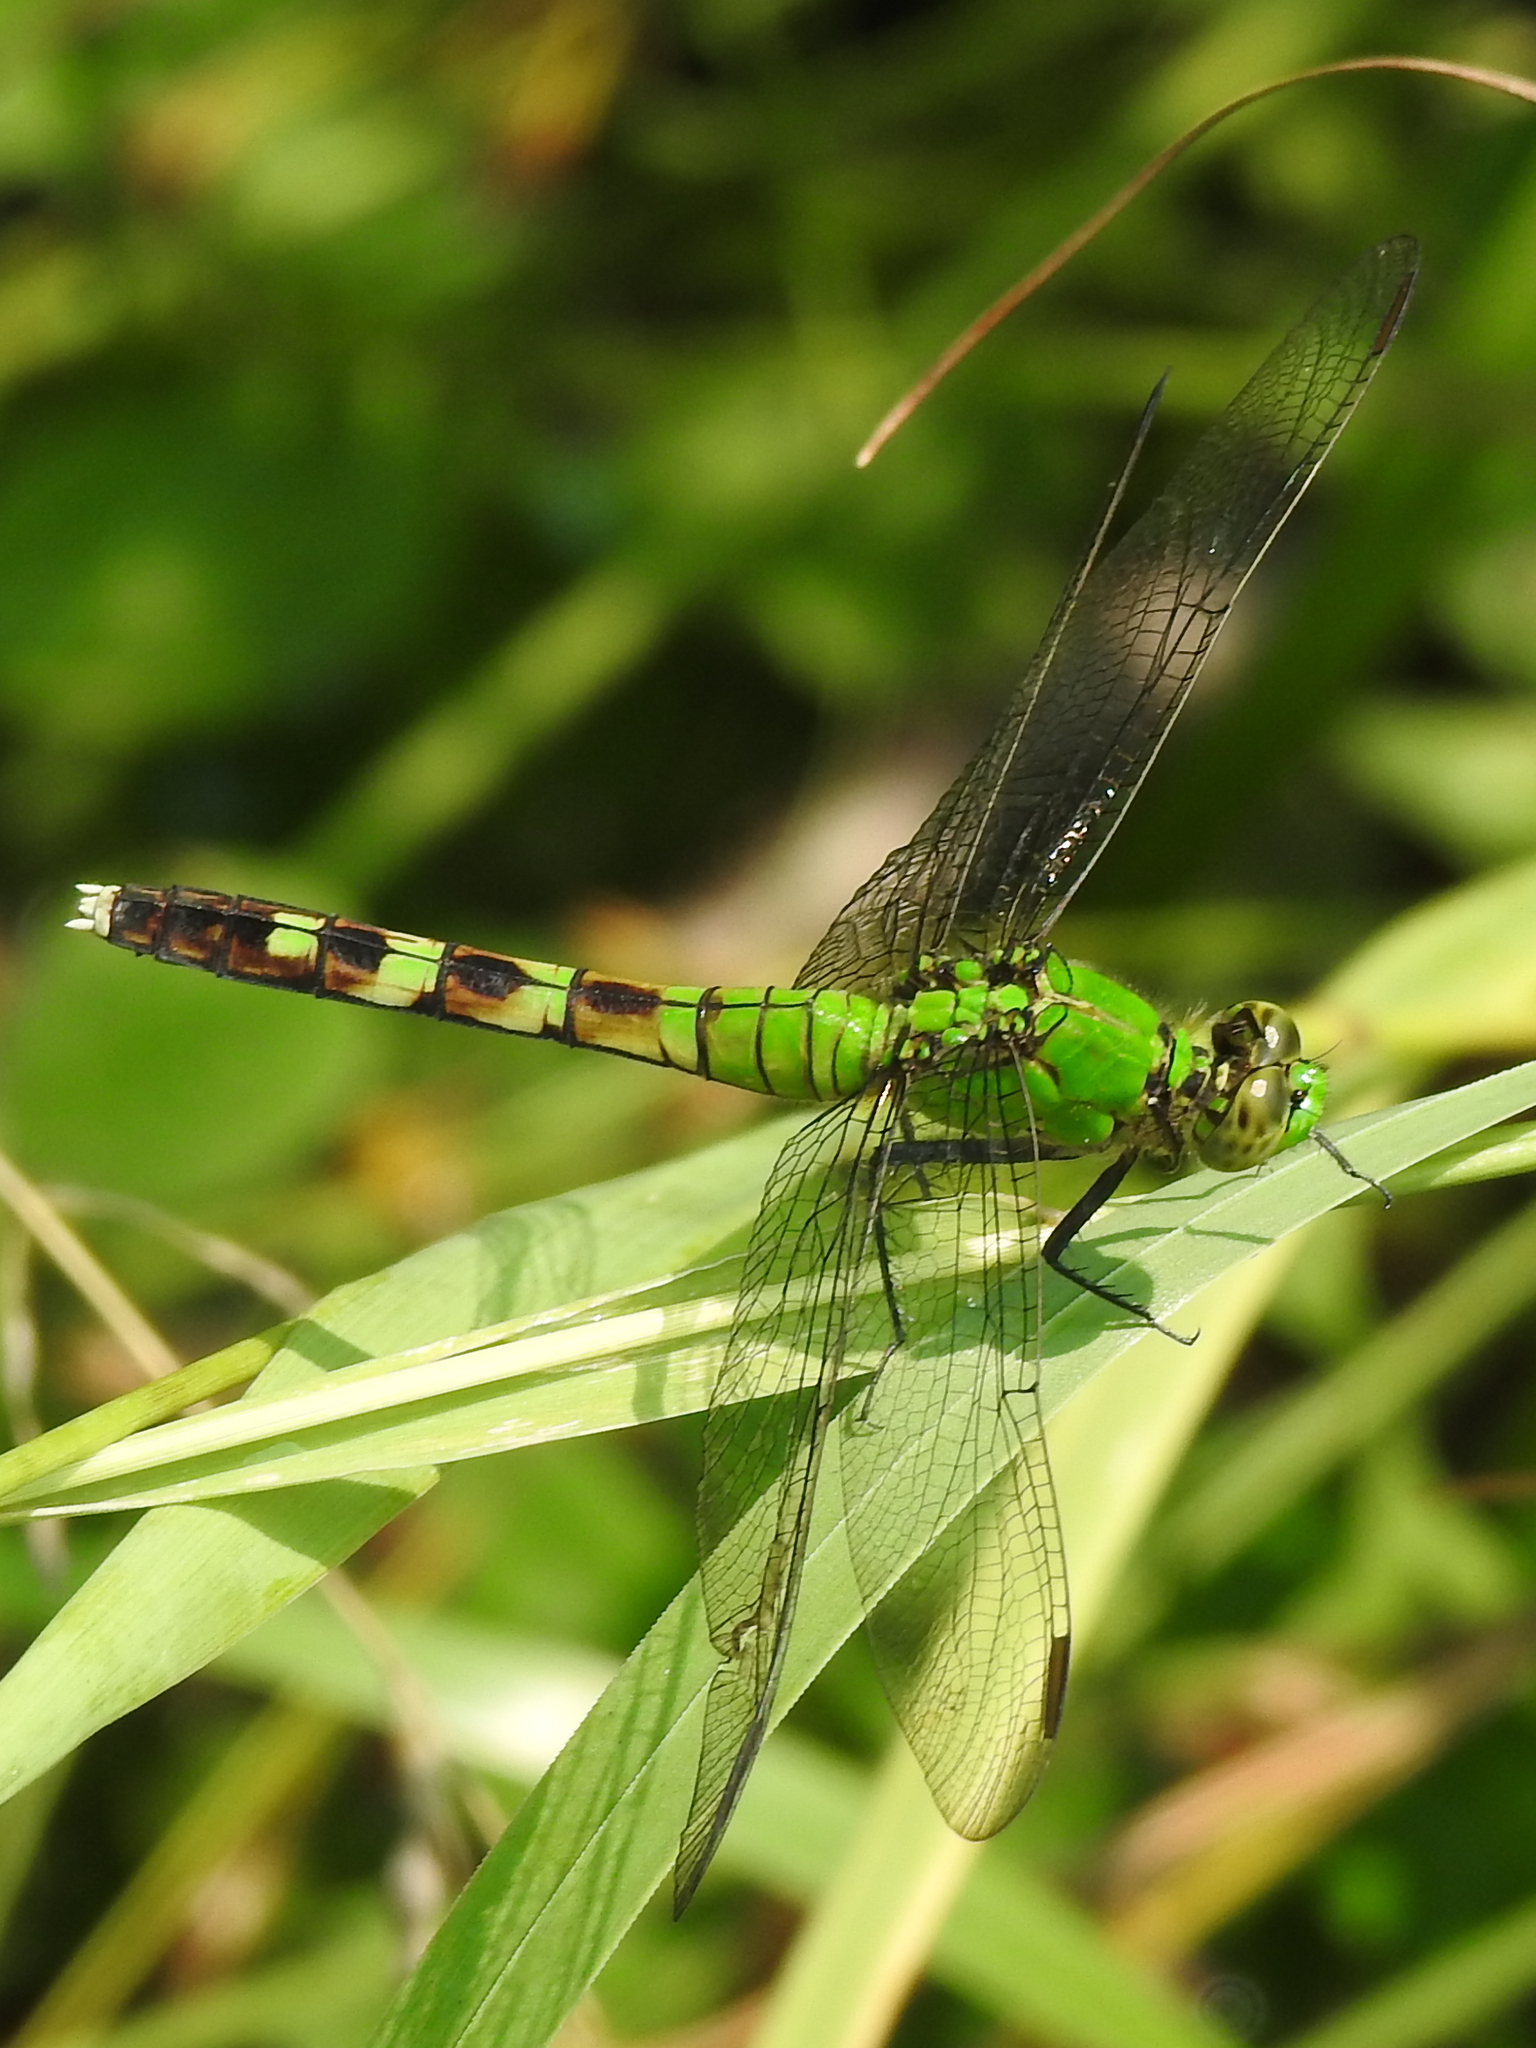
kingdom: Animalia
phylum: Arthropoda
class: Insecta
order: Odonata
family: Libellulidae
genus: Erythemis
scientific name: Erythemis simplicicollis
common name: Eastern pondhawk
